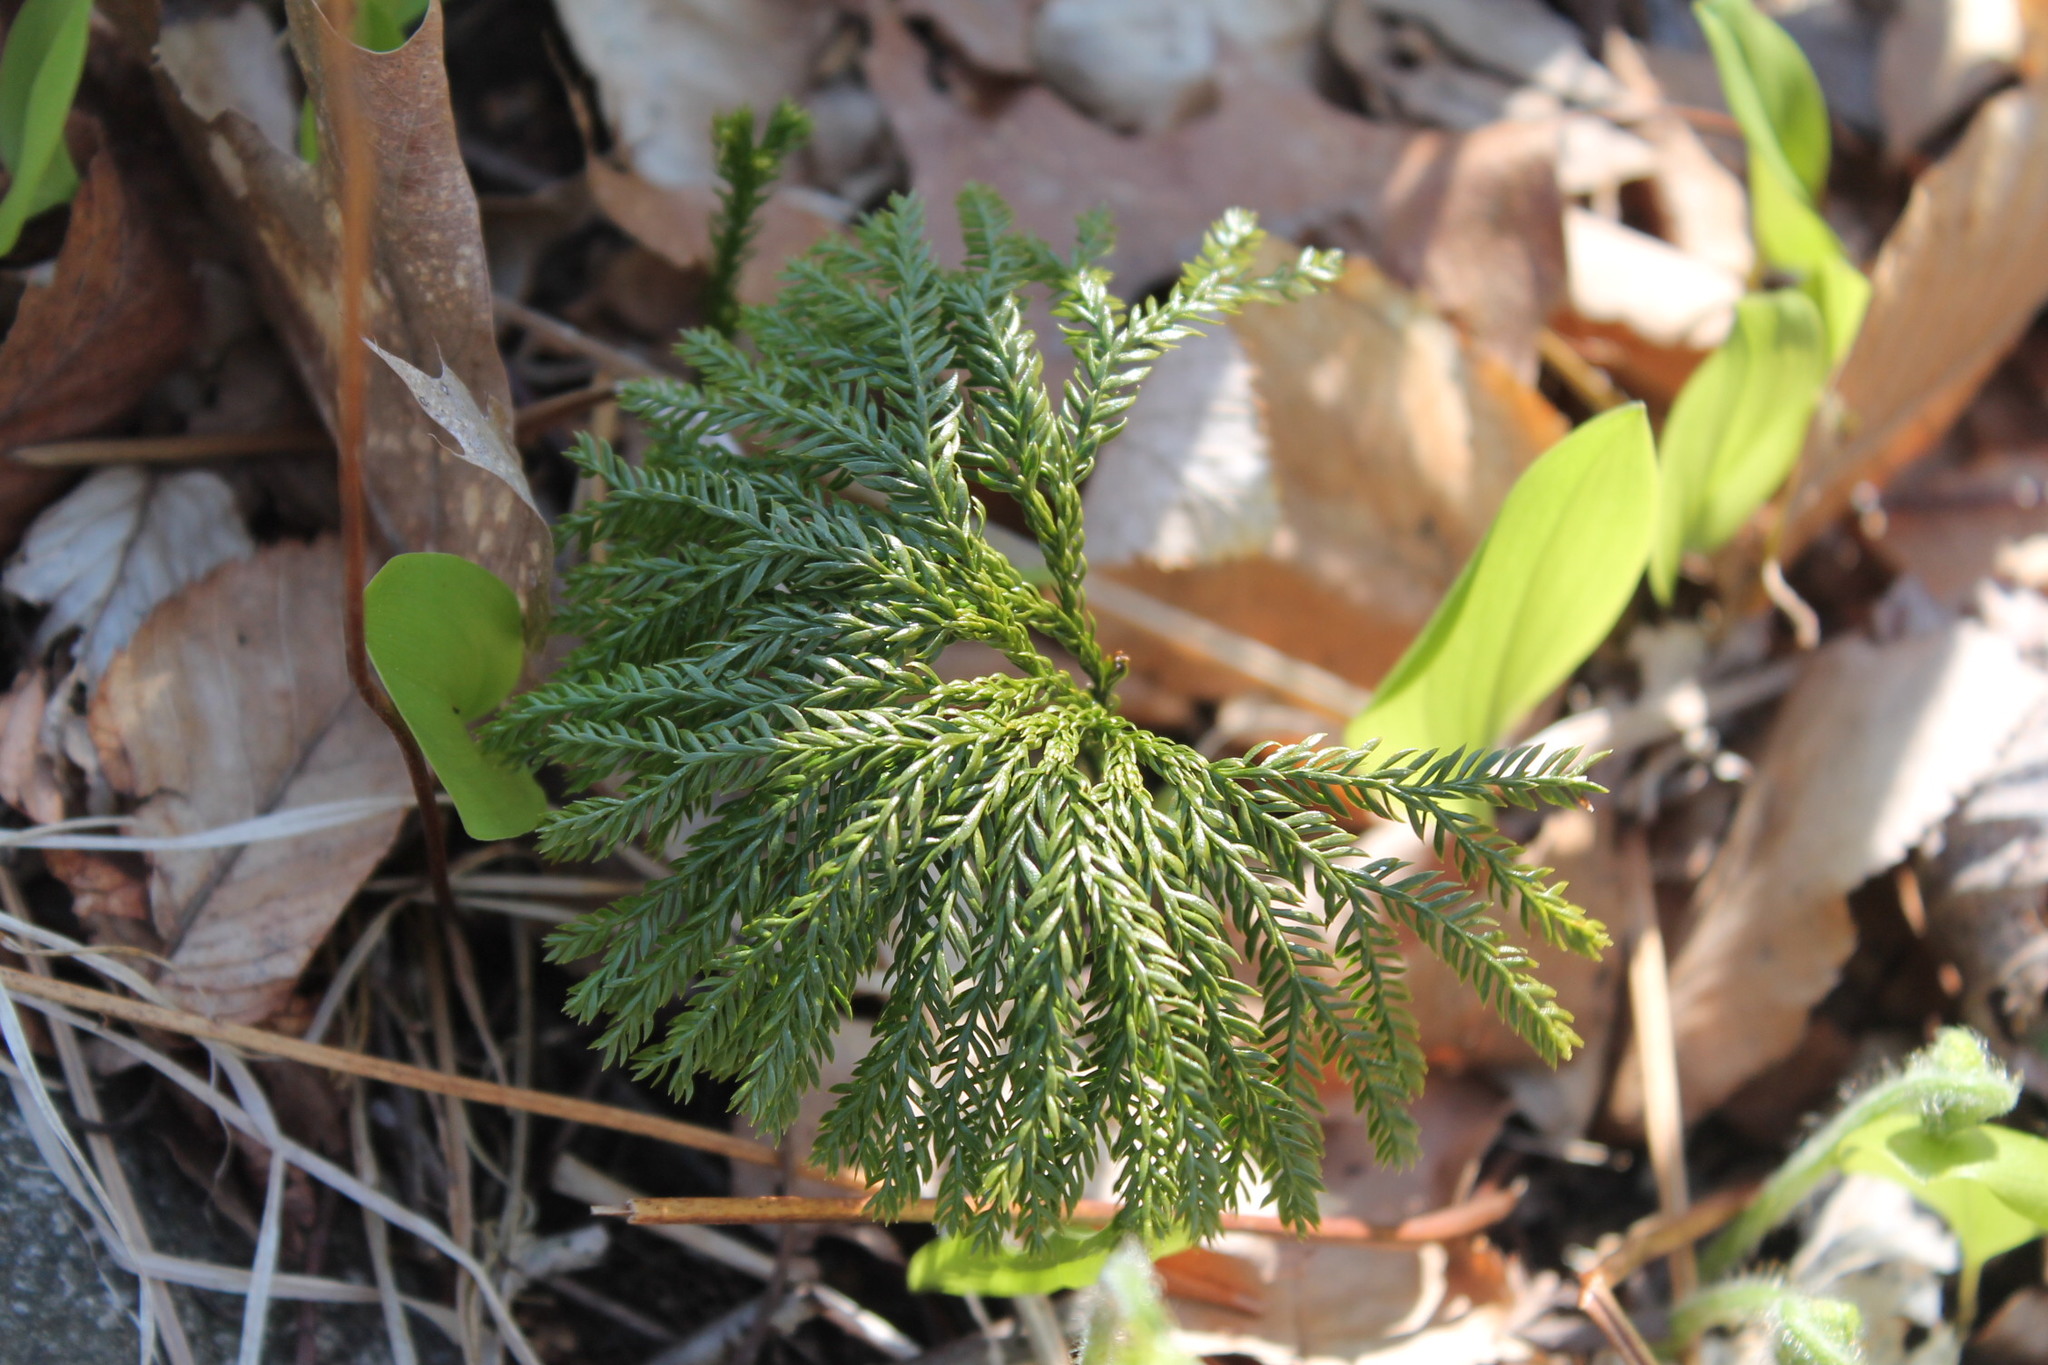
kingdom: Plantae
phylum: Tracheophyta
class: Lycopodiopsida
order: Lycopodiales
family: Lycopodiaceae
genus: Dendrolycopodium
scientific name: Dendrolycopodium obscurum
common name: Common ground-pine
